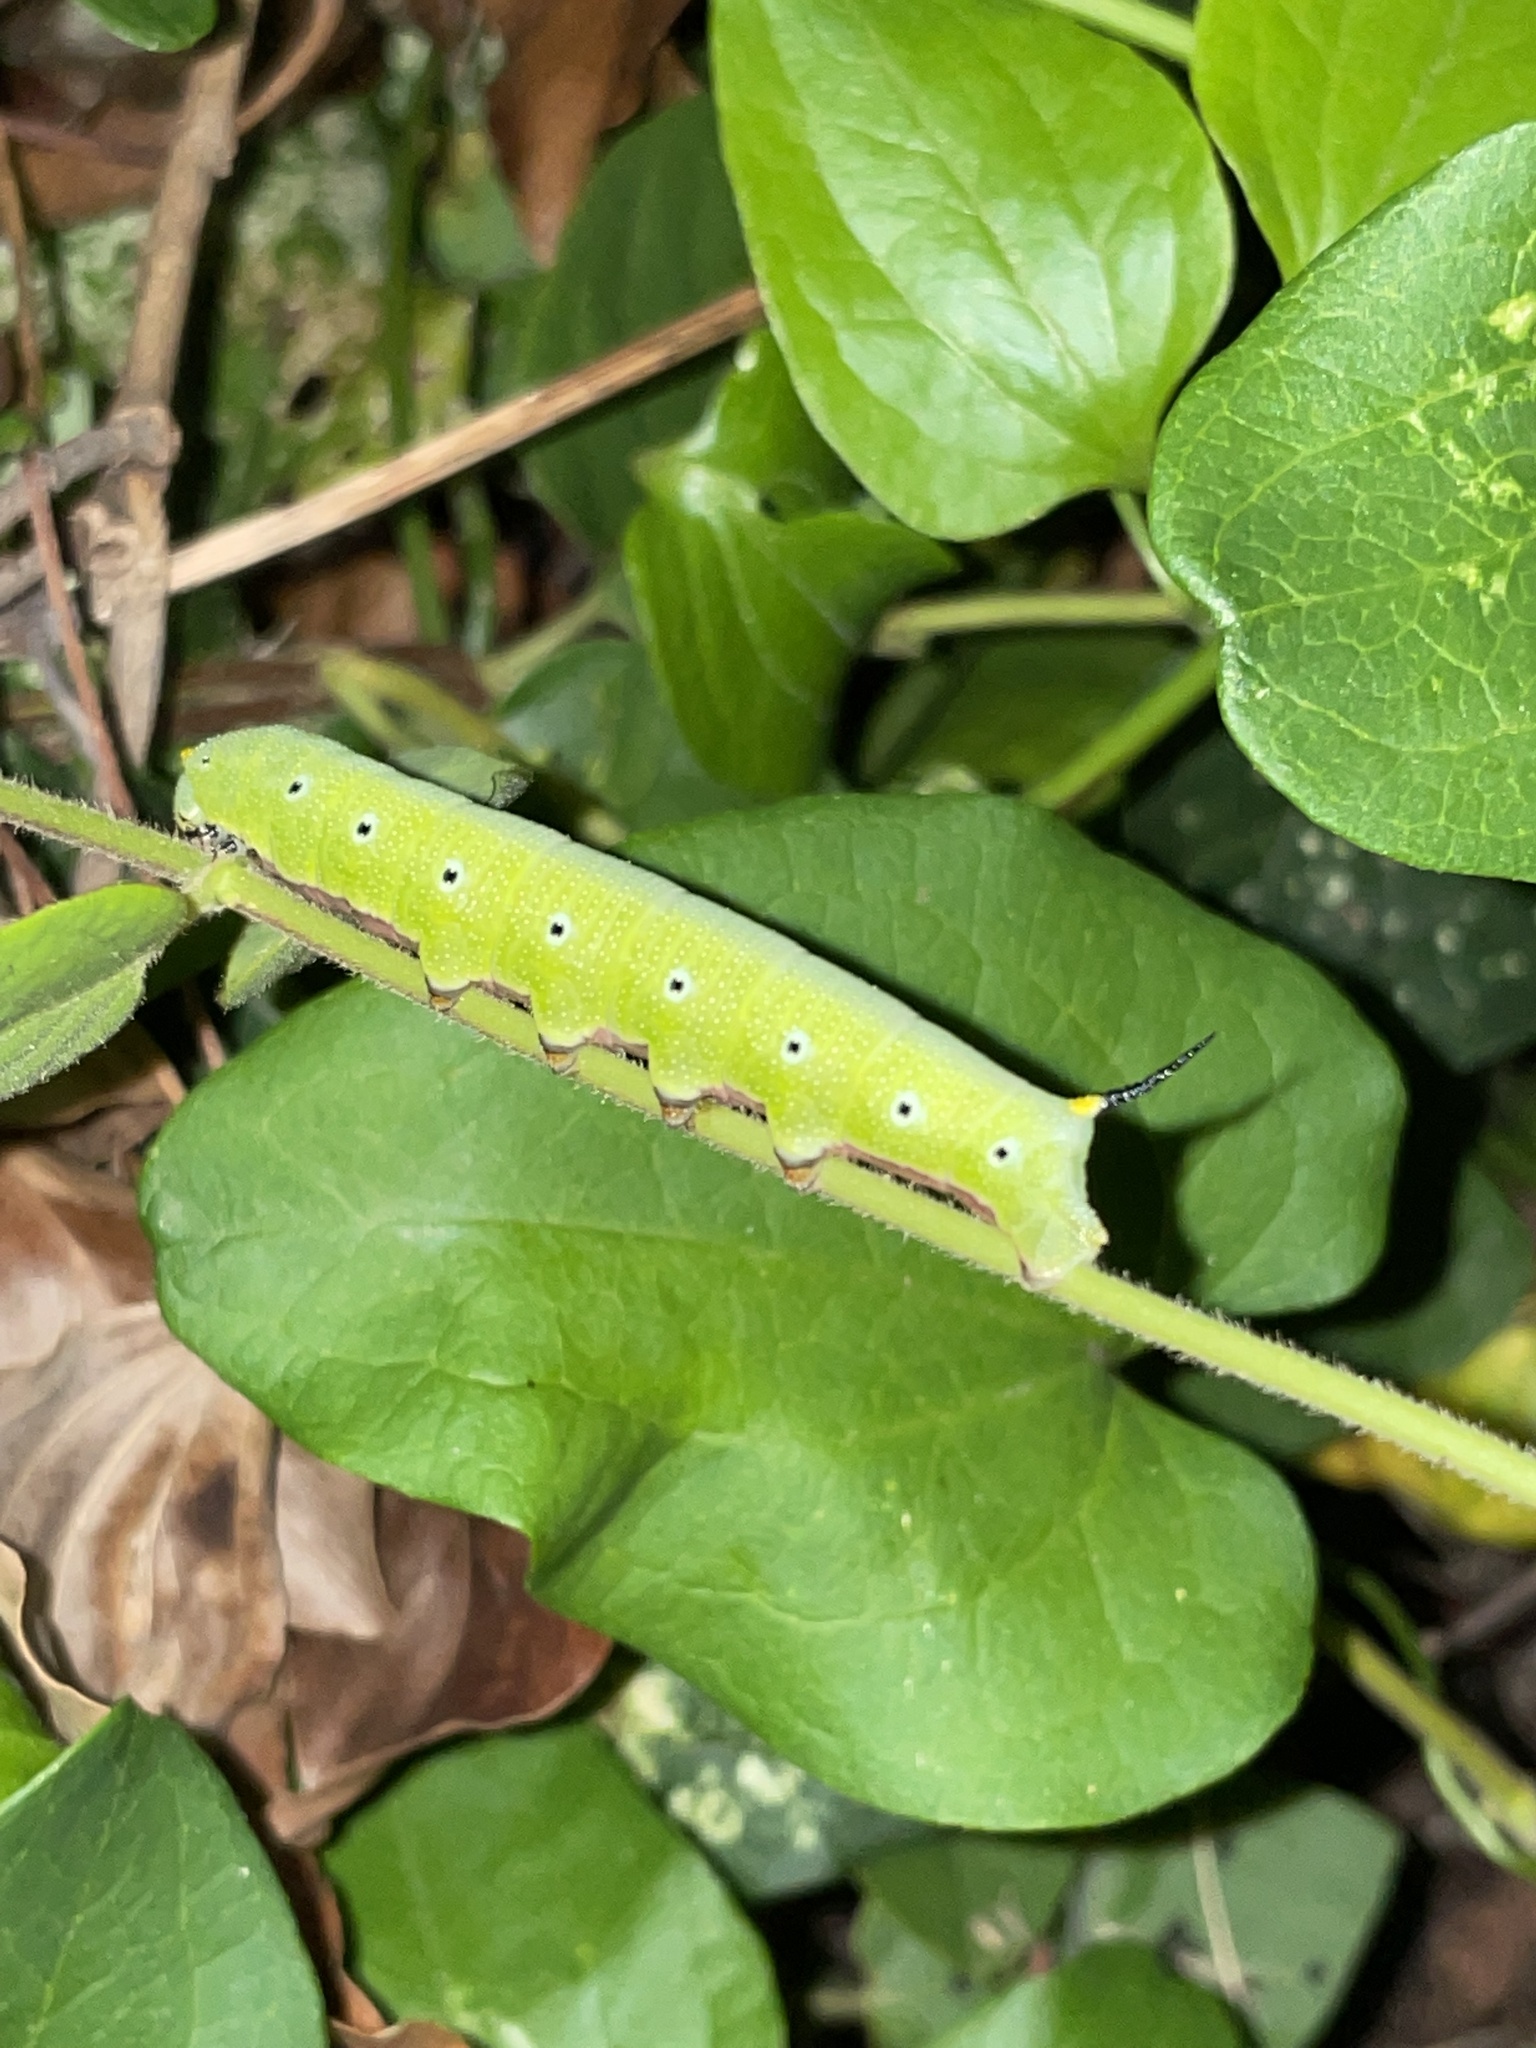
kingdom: Animalia
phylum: Arthropoda
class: Insecta
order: Lepidoptera
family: Sphingidae
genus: Hemaris
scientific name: Hemaris diffinis
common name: Bumblebee moth
